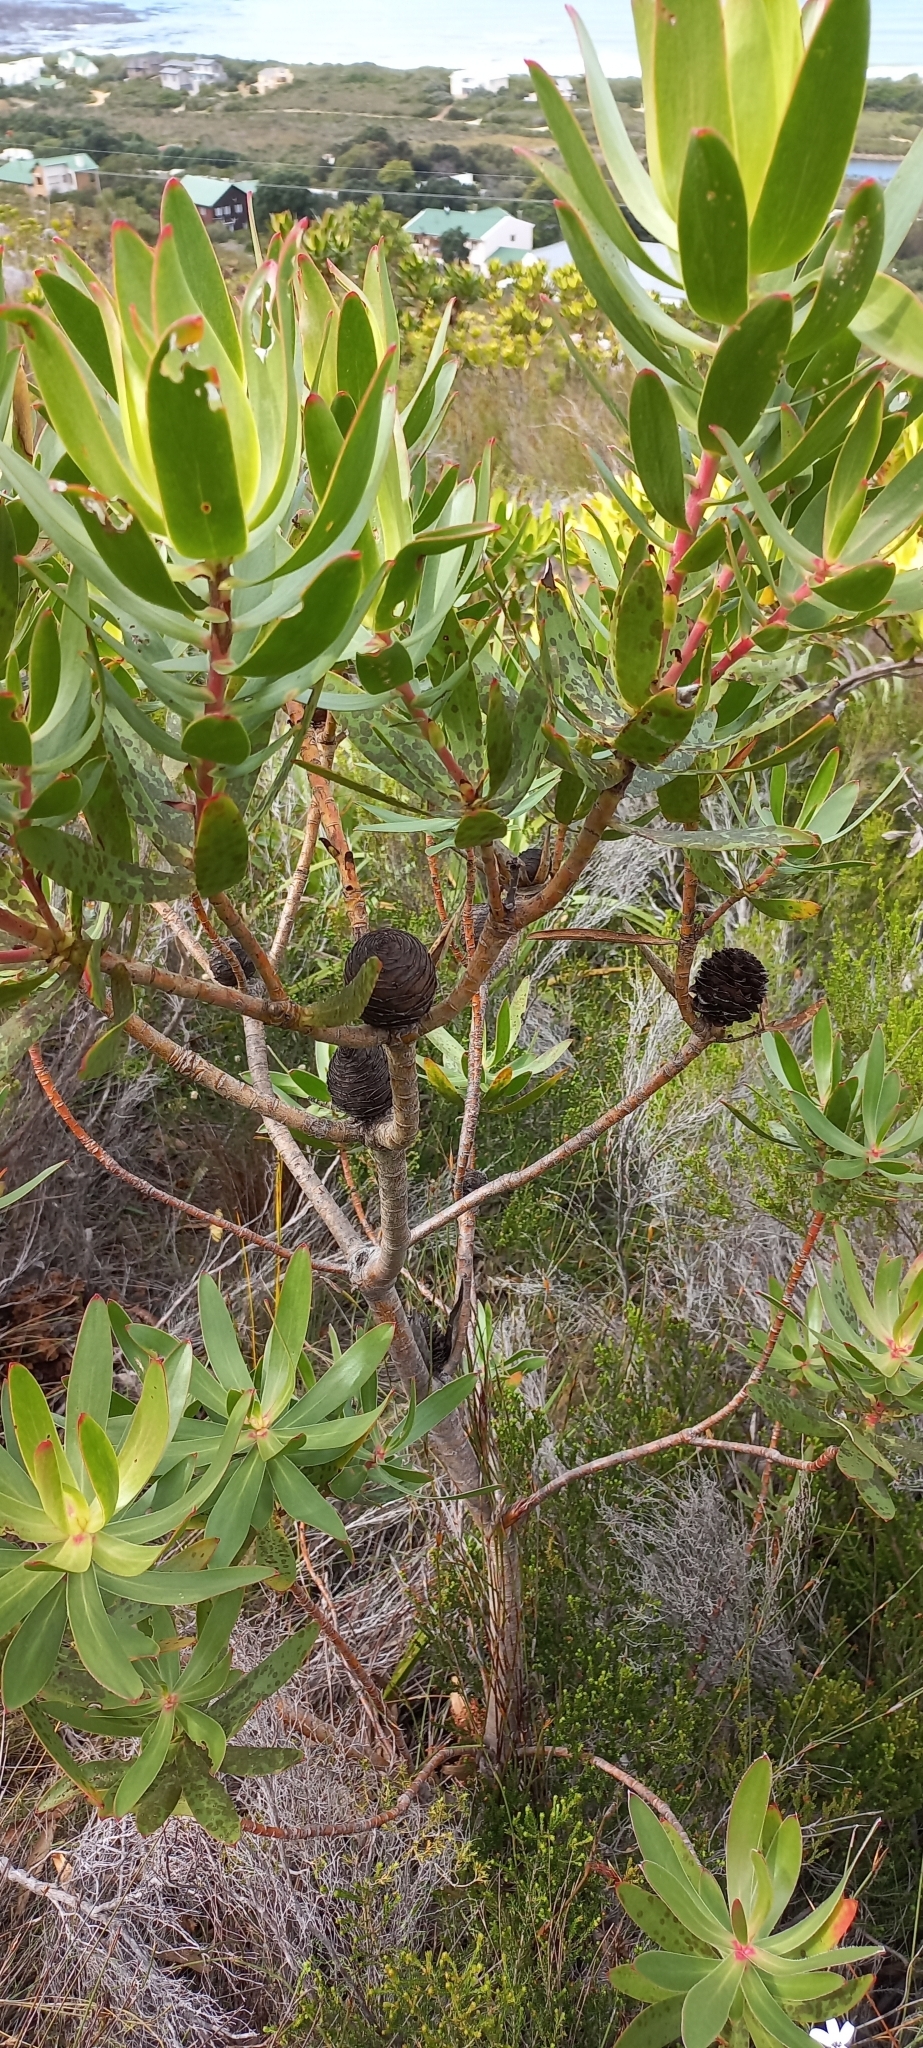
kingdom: Plantae
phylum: Tracheophyta
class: Magnoliopsida
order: Proteales
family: Proteaceae
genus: Leucadendron
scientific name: Leucadendron laureolum
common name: Golden sunshinebush
